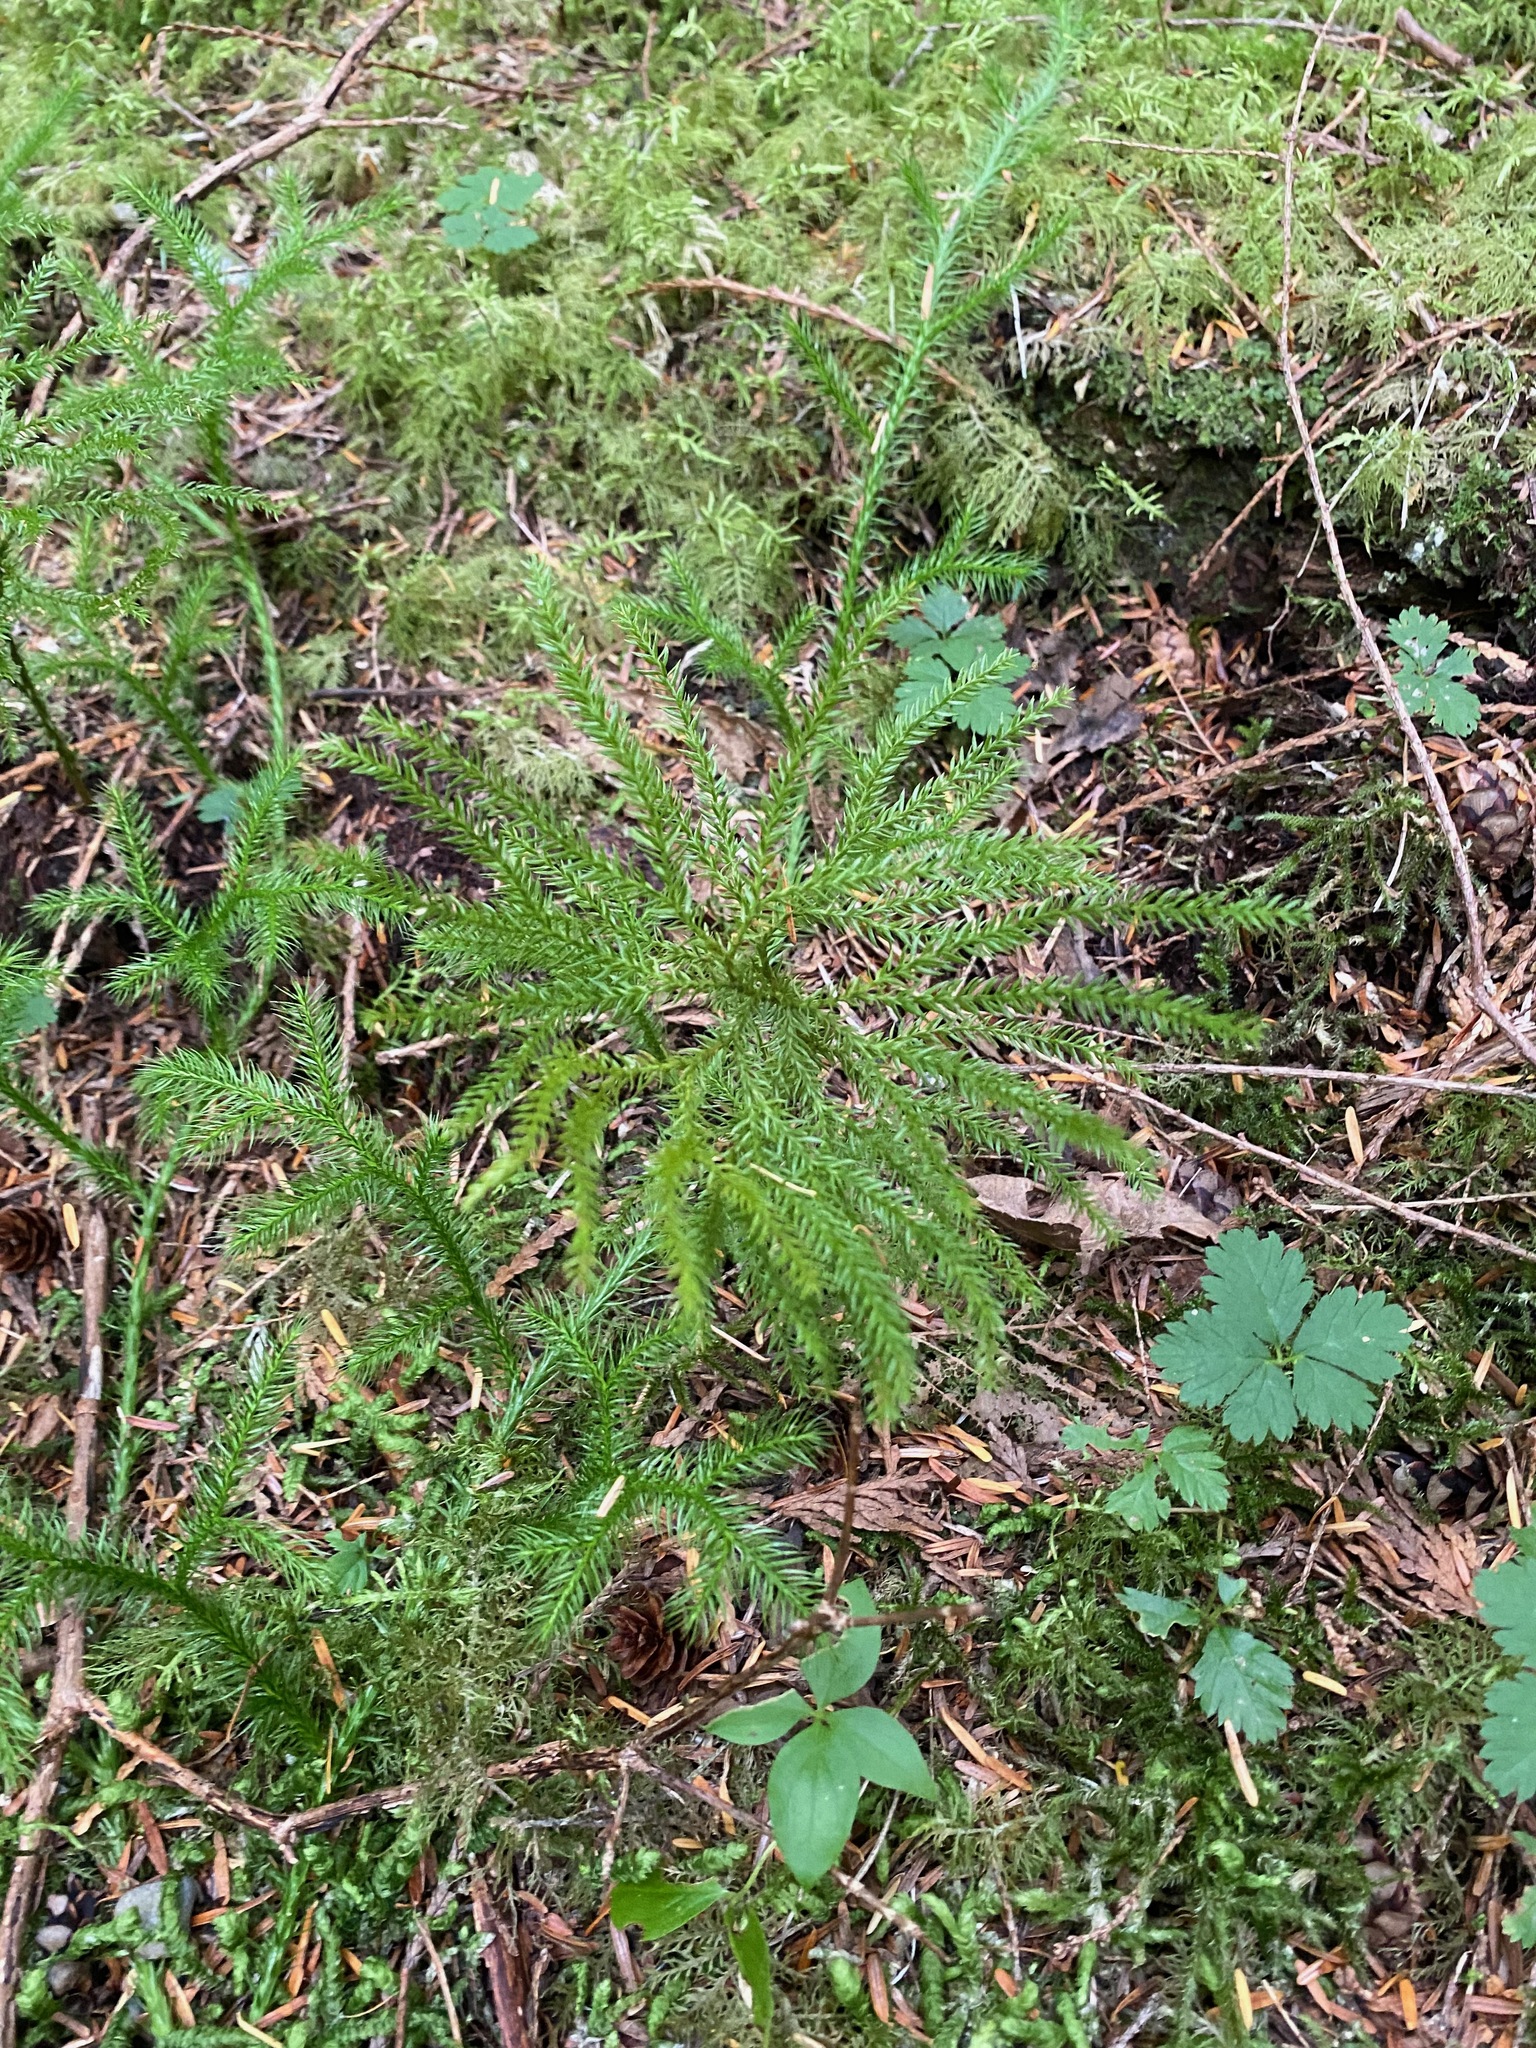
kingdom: Plantae
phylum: Tracheophyta
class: Lycopodiopsida
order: Lycopodiales
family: Lycopodiaceae
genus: Dendrolycopodium
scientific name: Dendrolycopodium dendroideum
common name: Northern tree-clubmoss
